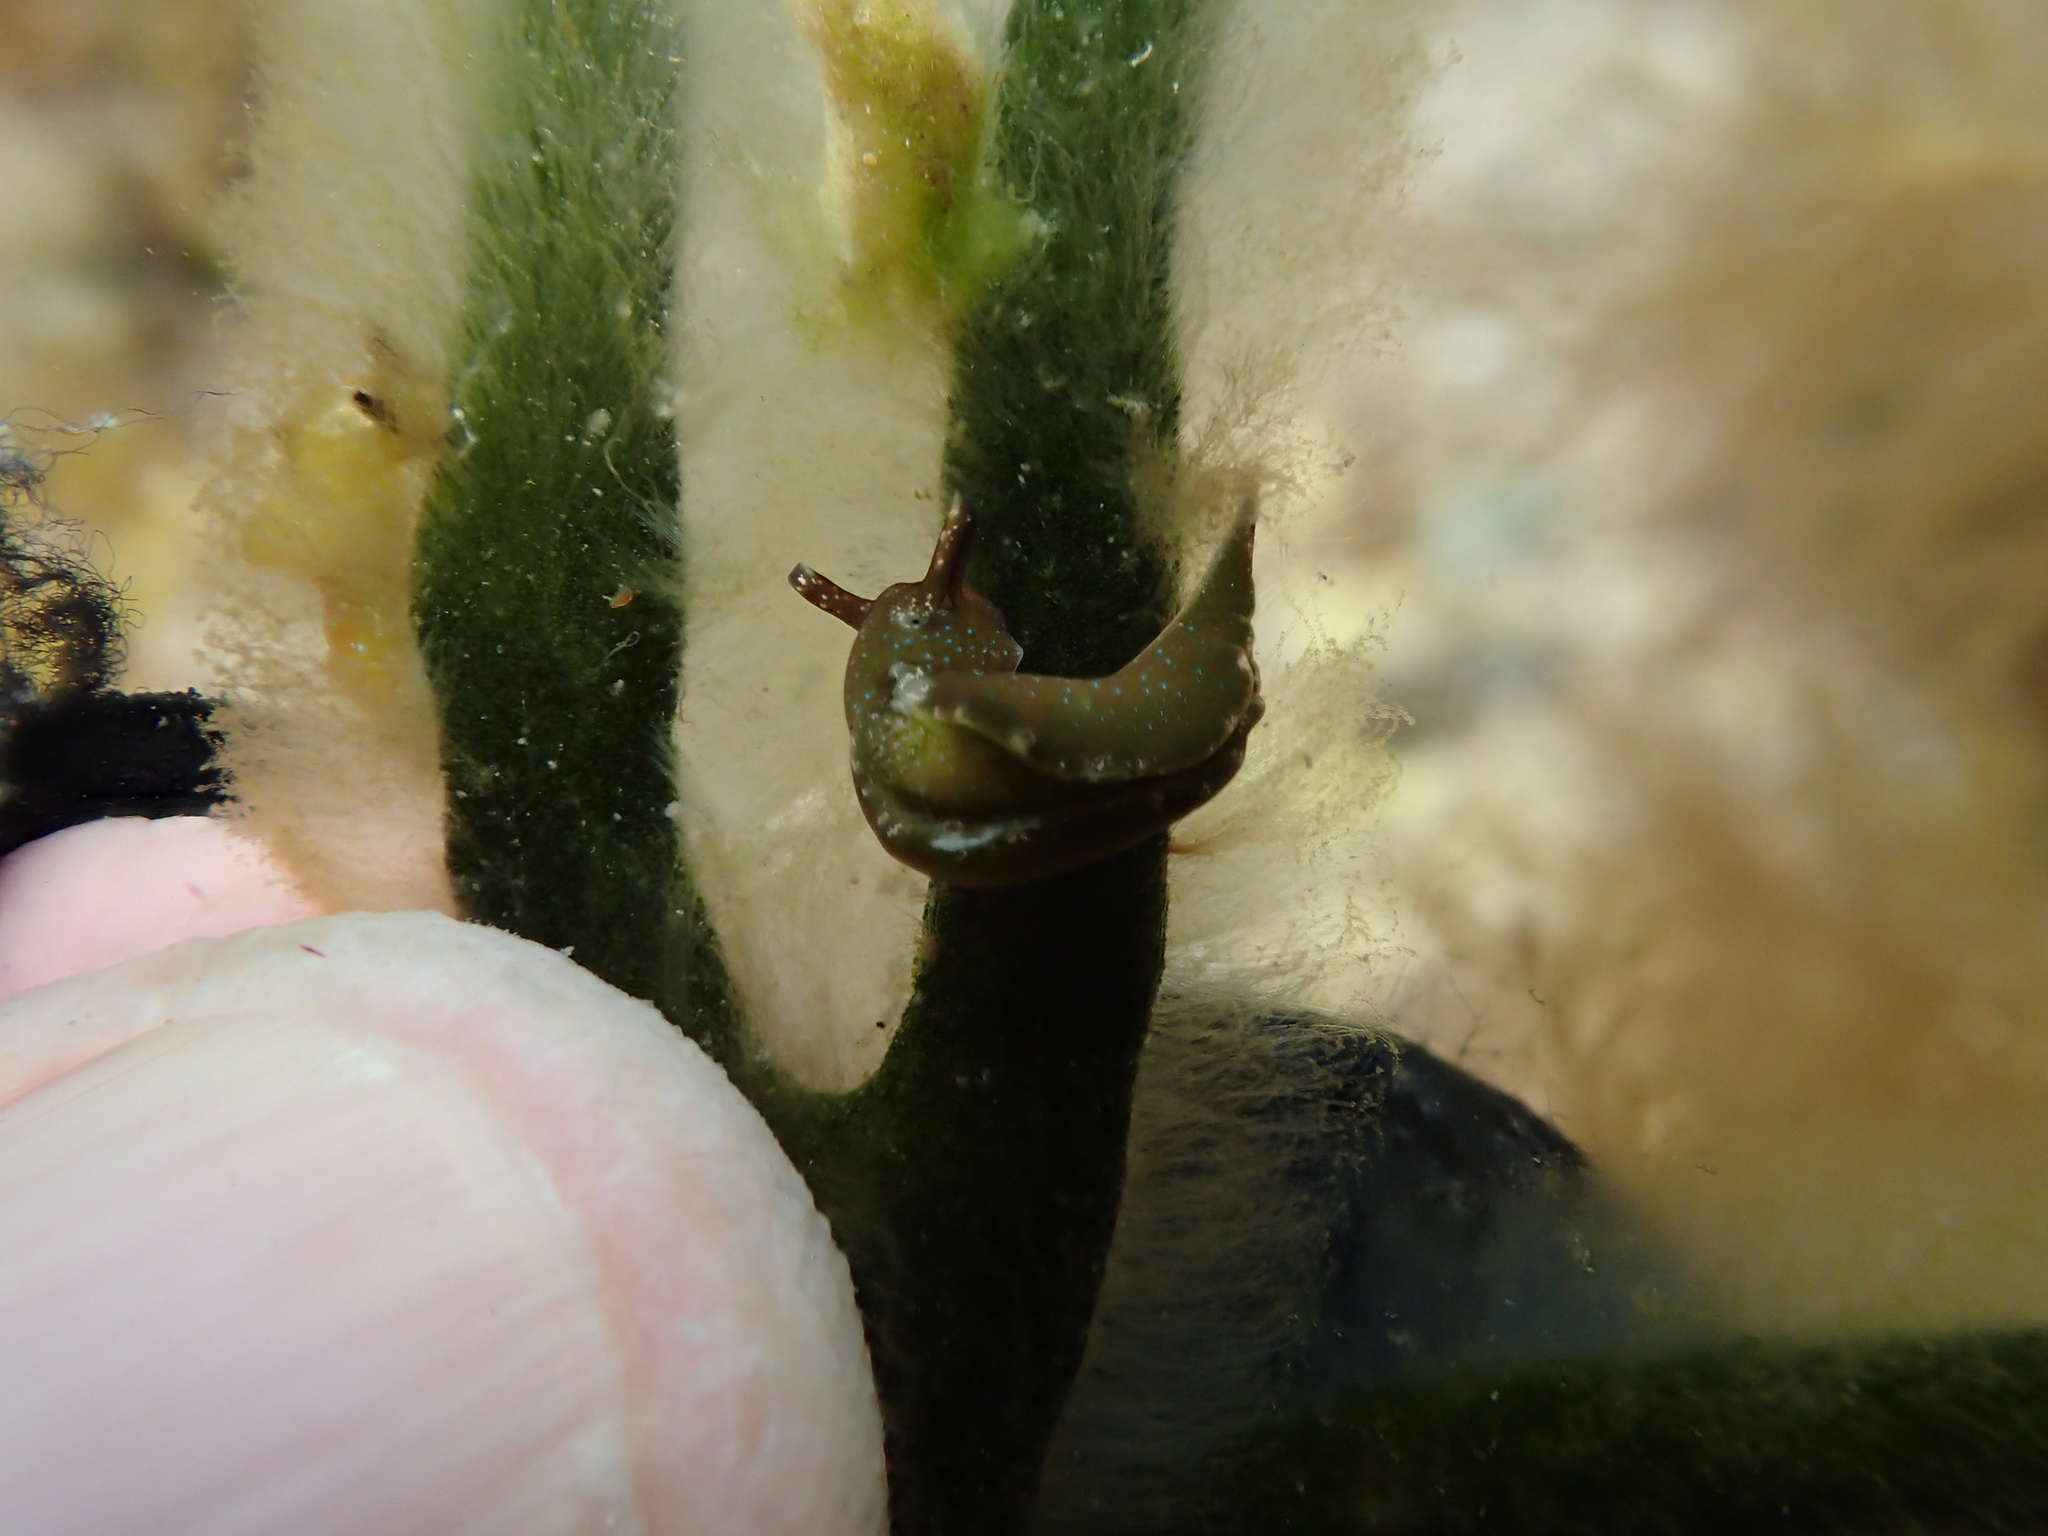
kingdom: Animalia
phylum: Mollusca
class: Gastropoda
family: Plakobranchidae
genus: Elysia
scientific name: Elysia viridis
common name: Green elysia
